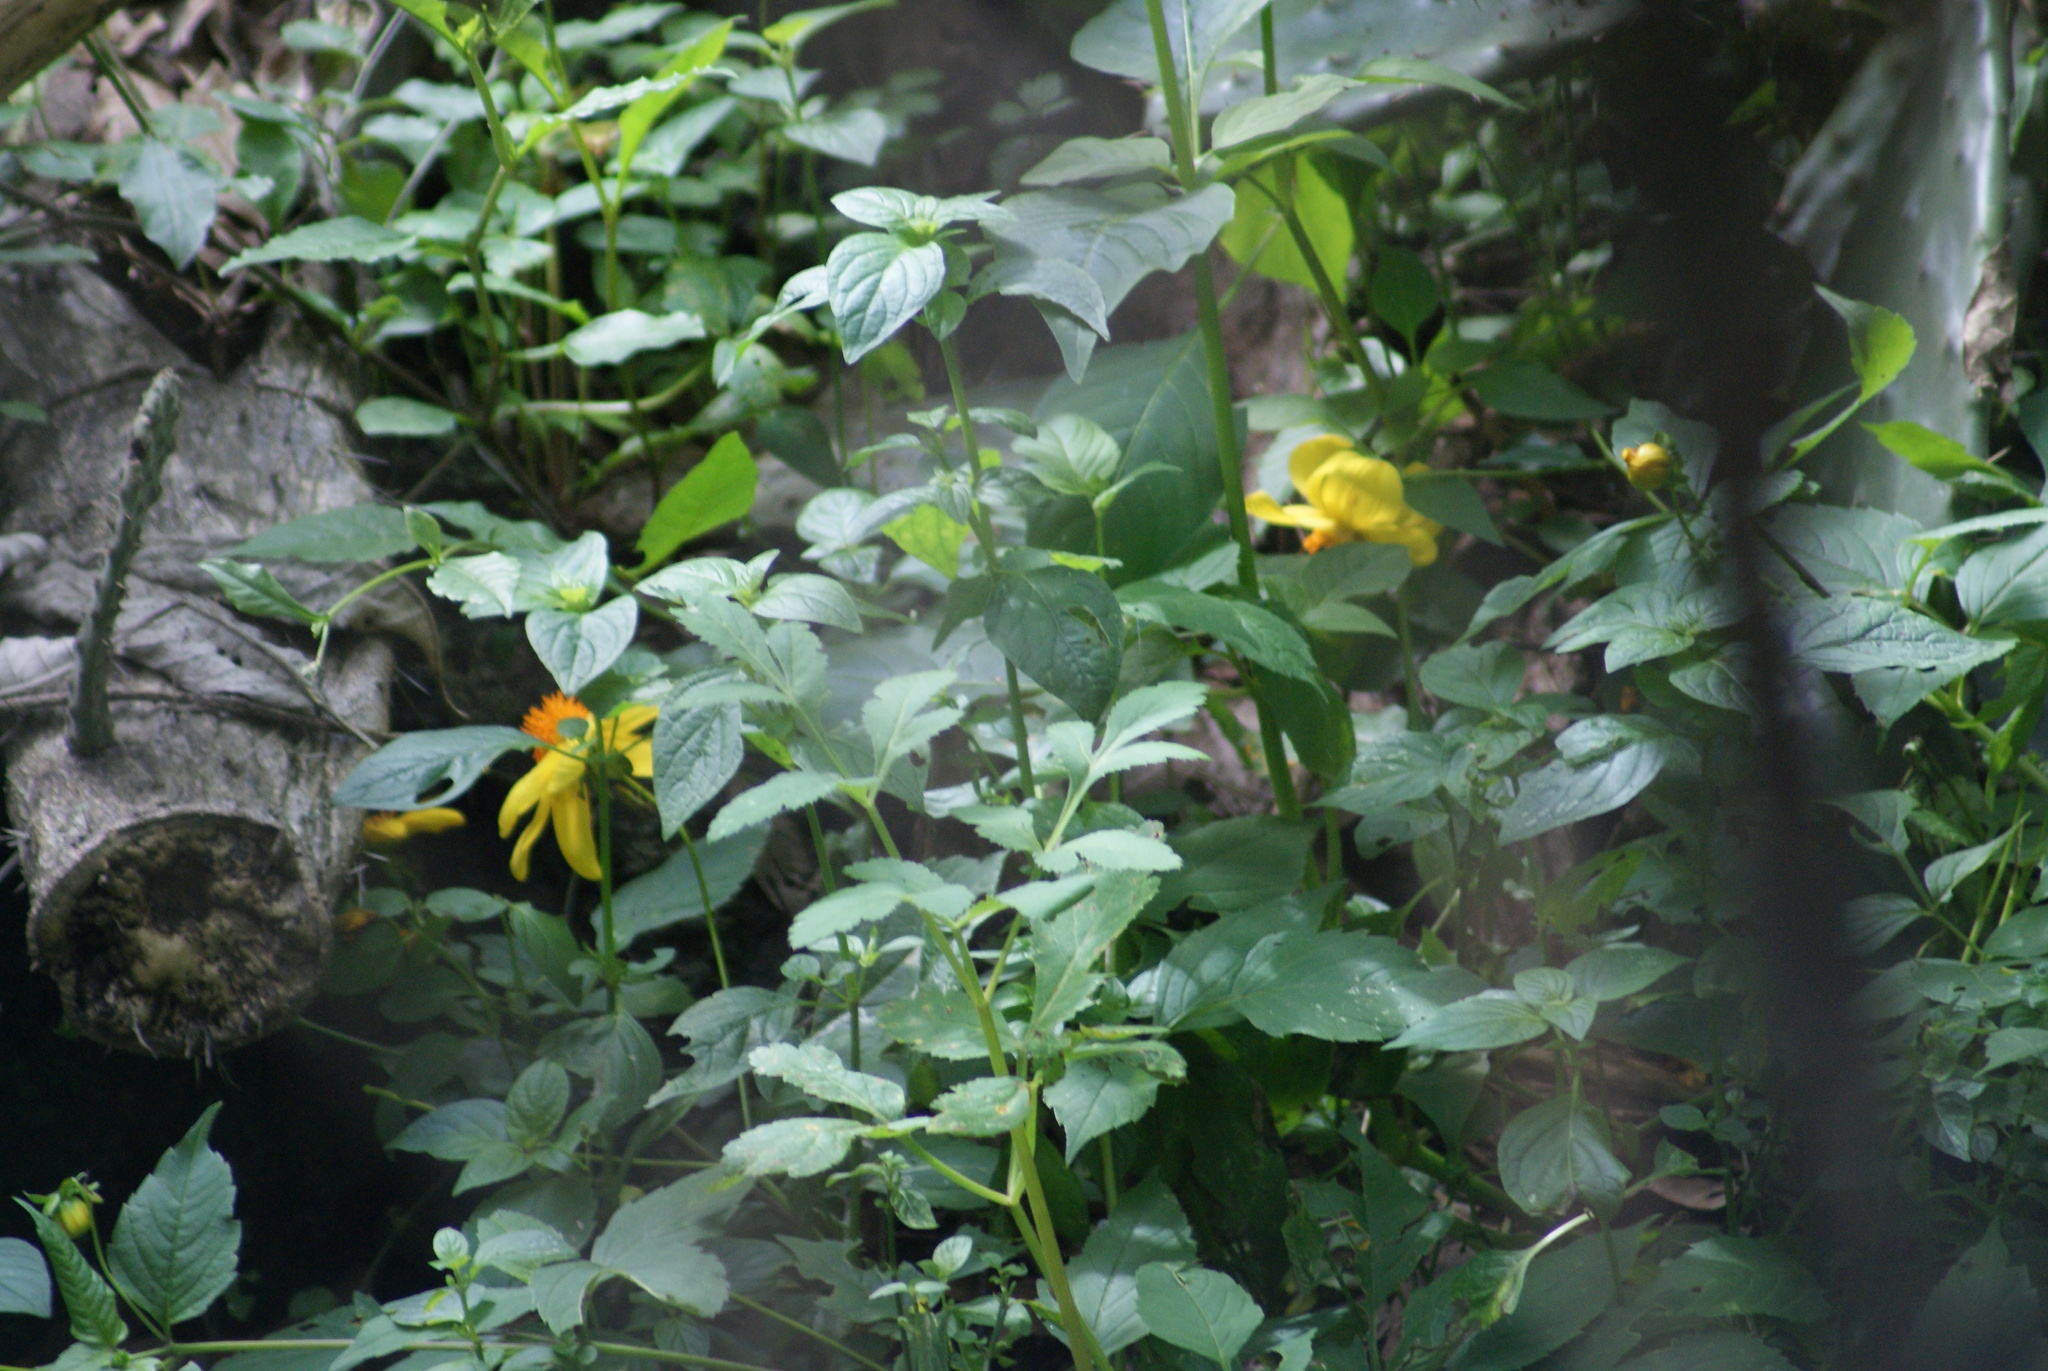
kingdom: Plantae
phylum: Tracheophyta
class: Magnoliopsida
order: Asterales
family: Asteraceae
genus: Dahlia
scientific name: Dahlia coccinea
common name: Red dahlia
